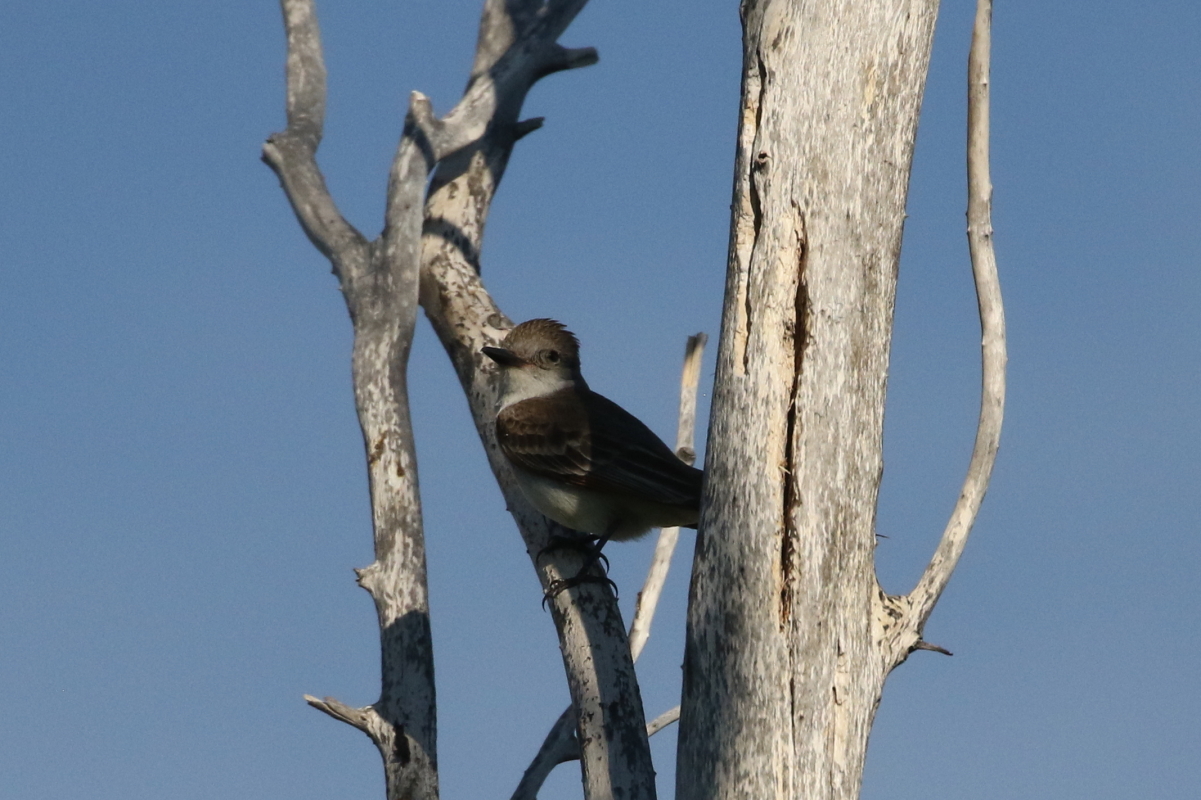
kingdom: Animalia
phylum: Chordata
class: Aves
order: Passeriformes
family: Tyrannidae
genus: Myiarchus
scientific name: Myiarchus cinerascens
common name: Ash-throated flycatcher
